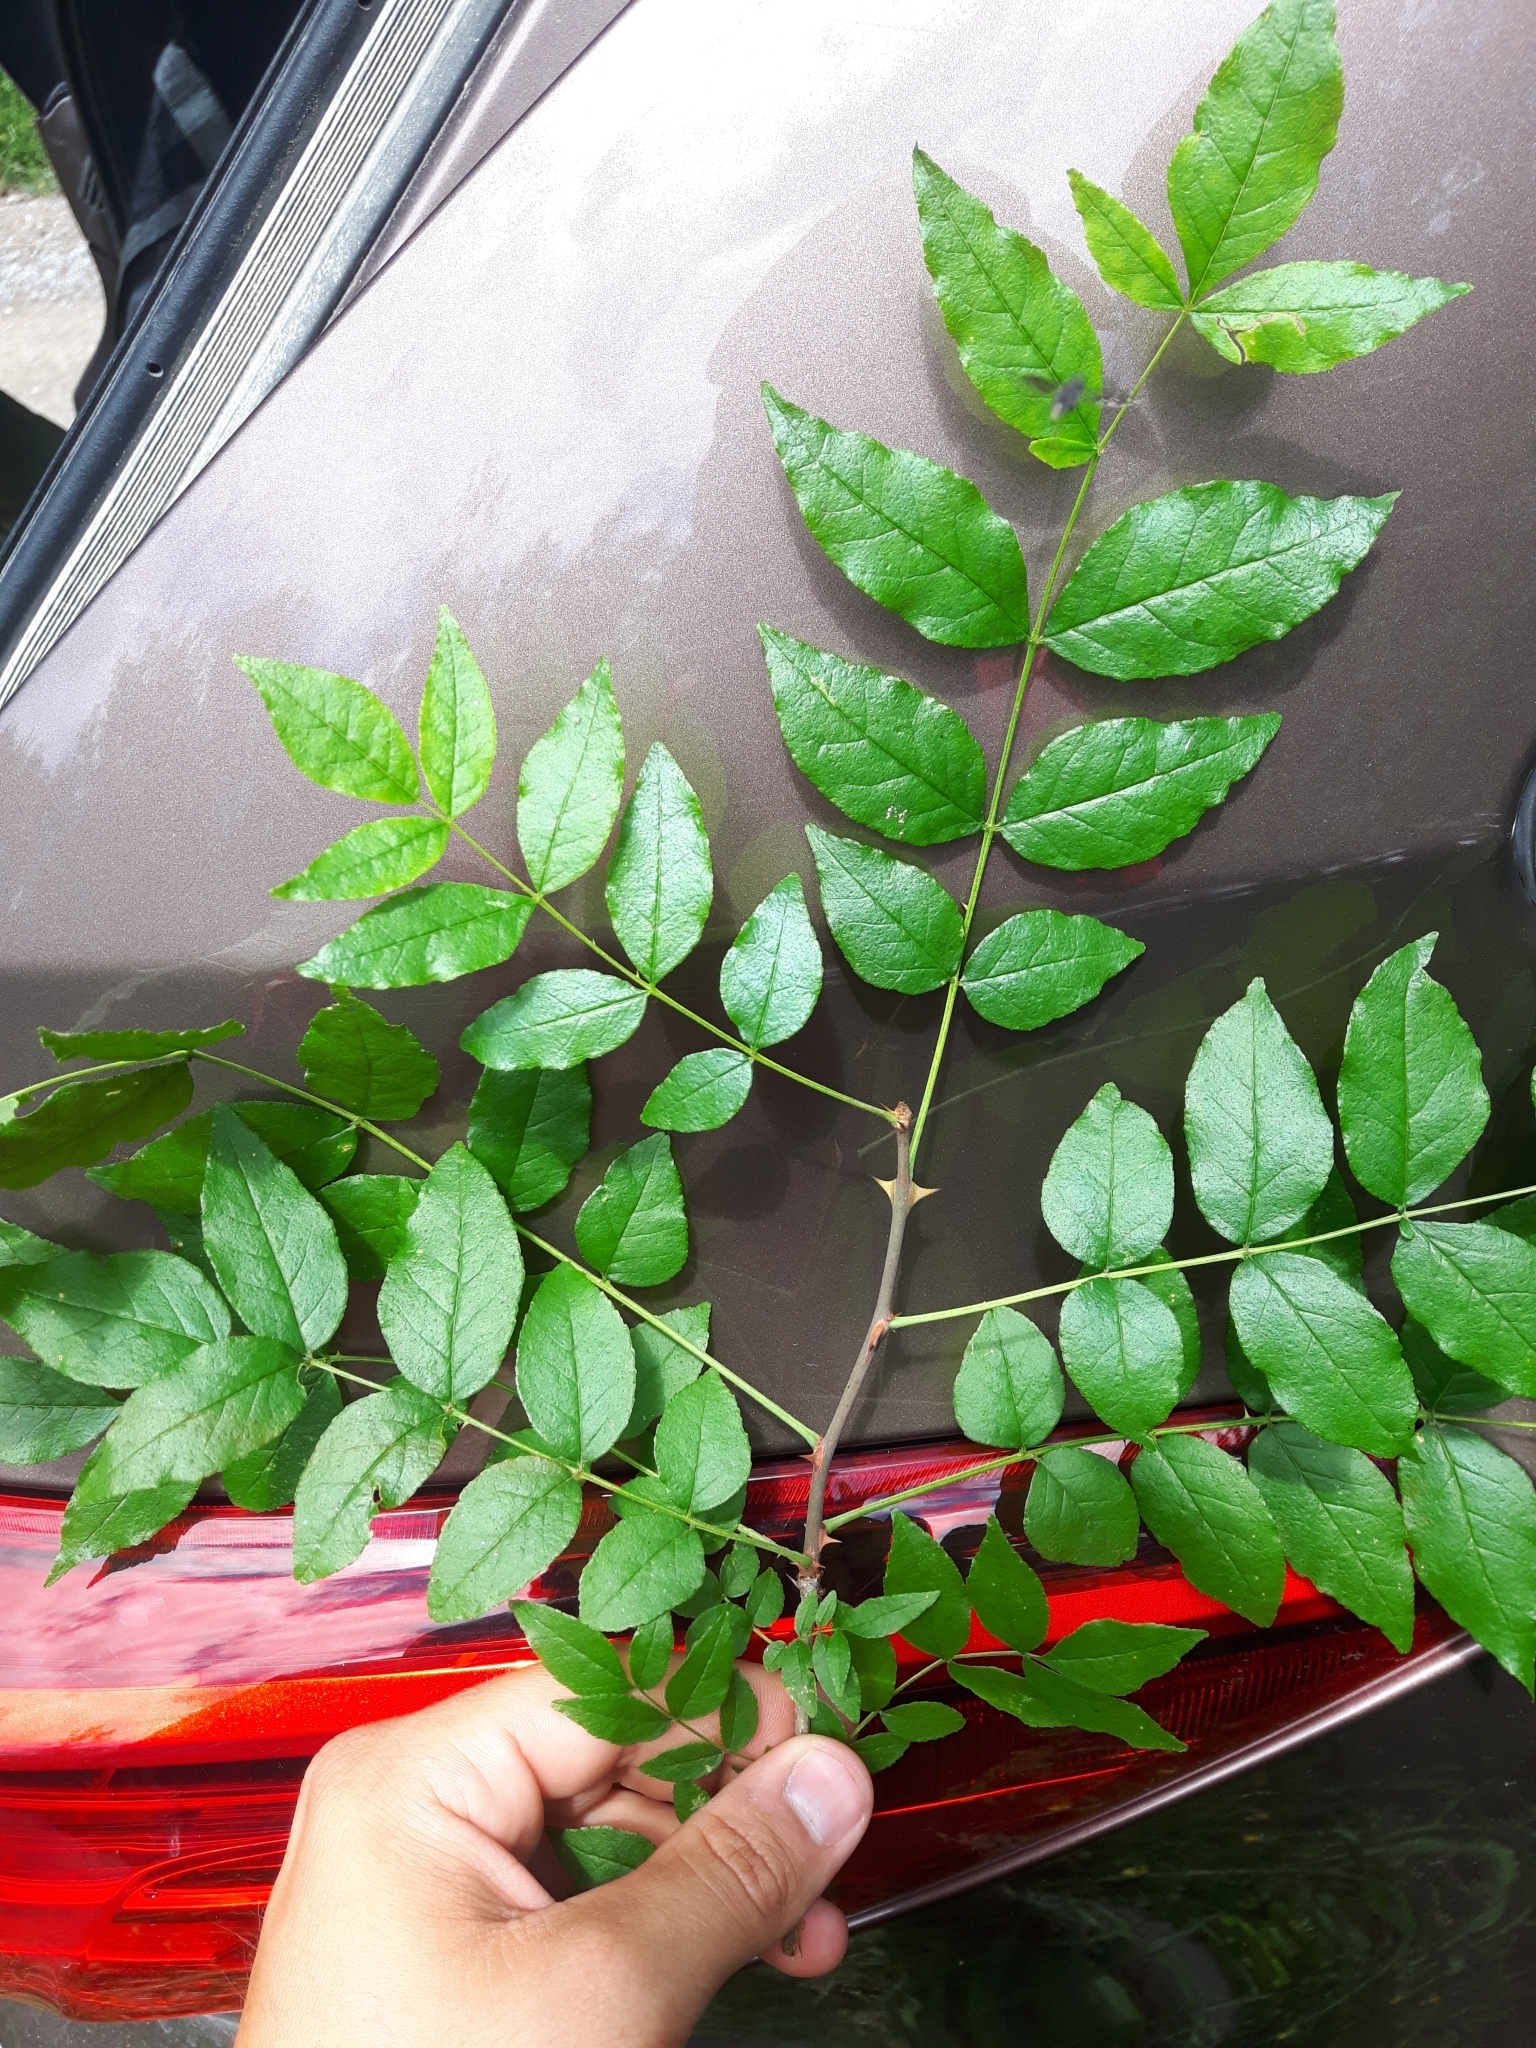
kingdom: Plantae
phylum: Tracheophyta
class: Magnoliopsida
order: Sapindales
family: Rutaceae
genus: Zanthoxylum
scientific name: Zanthoxylum americanum
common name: Northern prickly-ash
